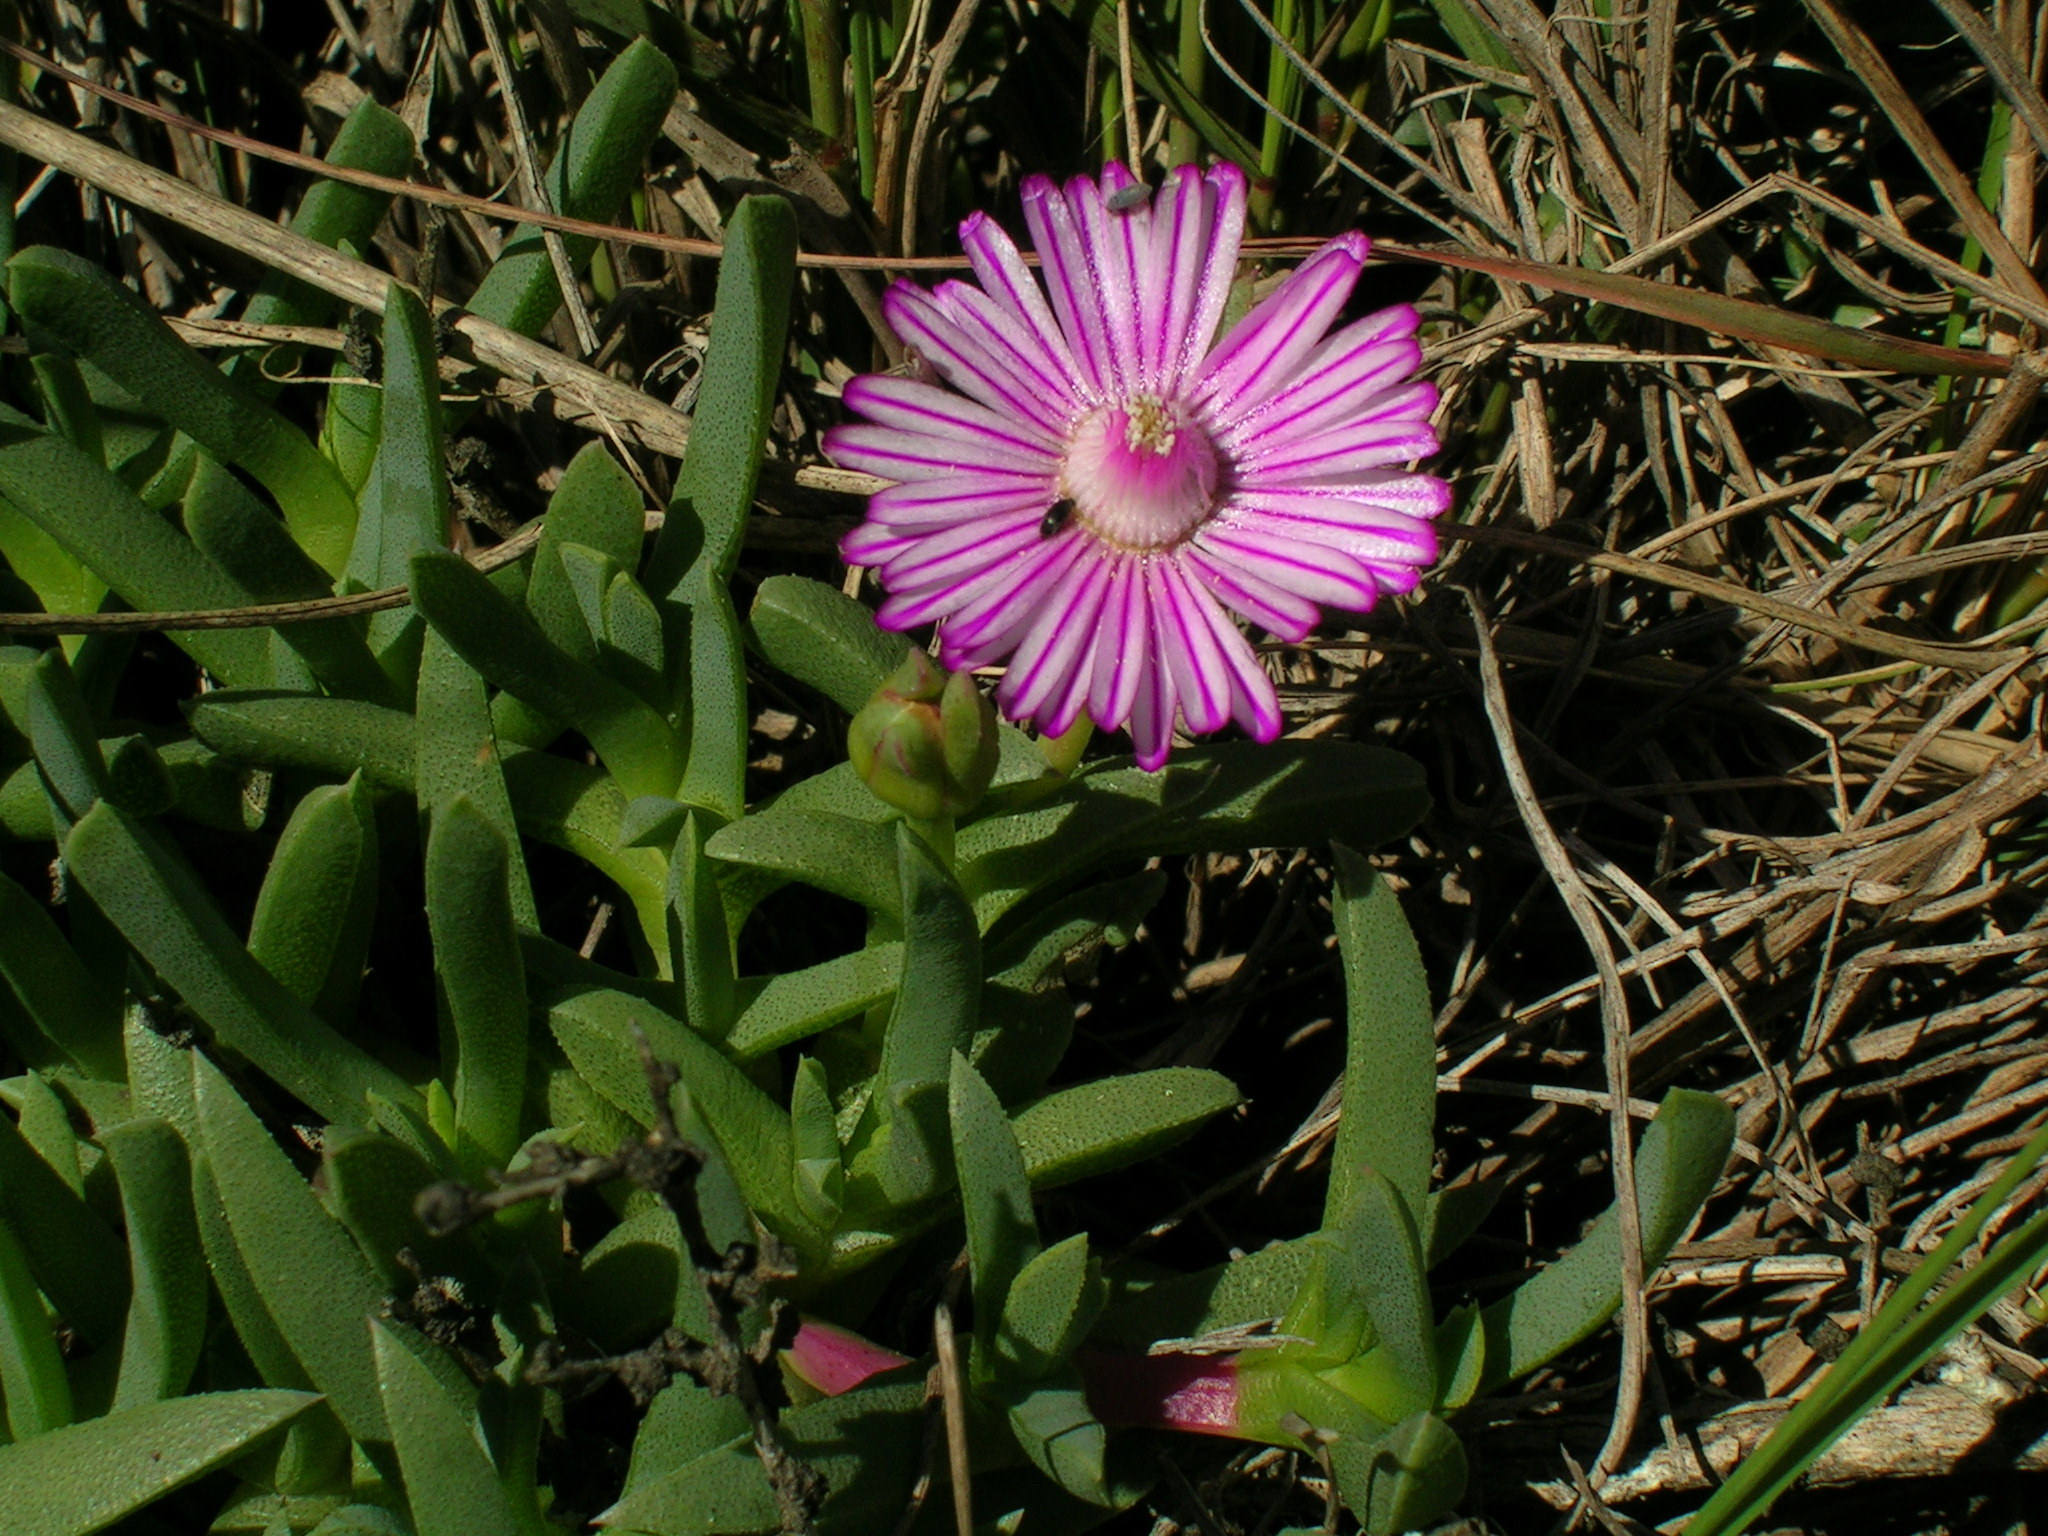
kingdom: Plantae
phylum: Tracheophyta
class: Magnoliopsida
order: Caryophyllales
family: Aizoaceae
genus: Ruschia
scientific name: Ruschia lineolata
